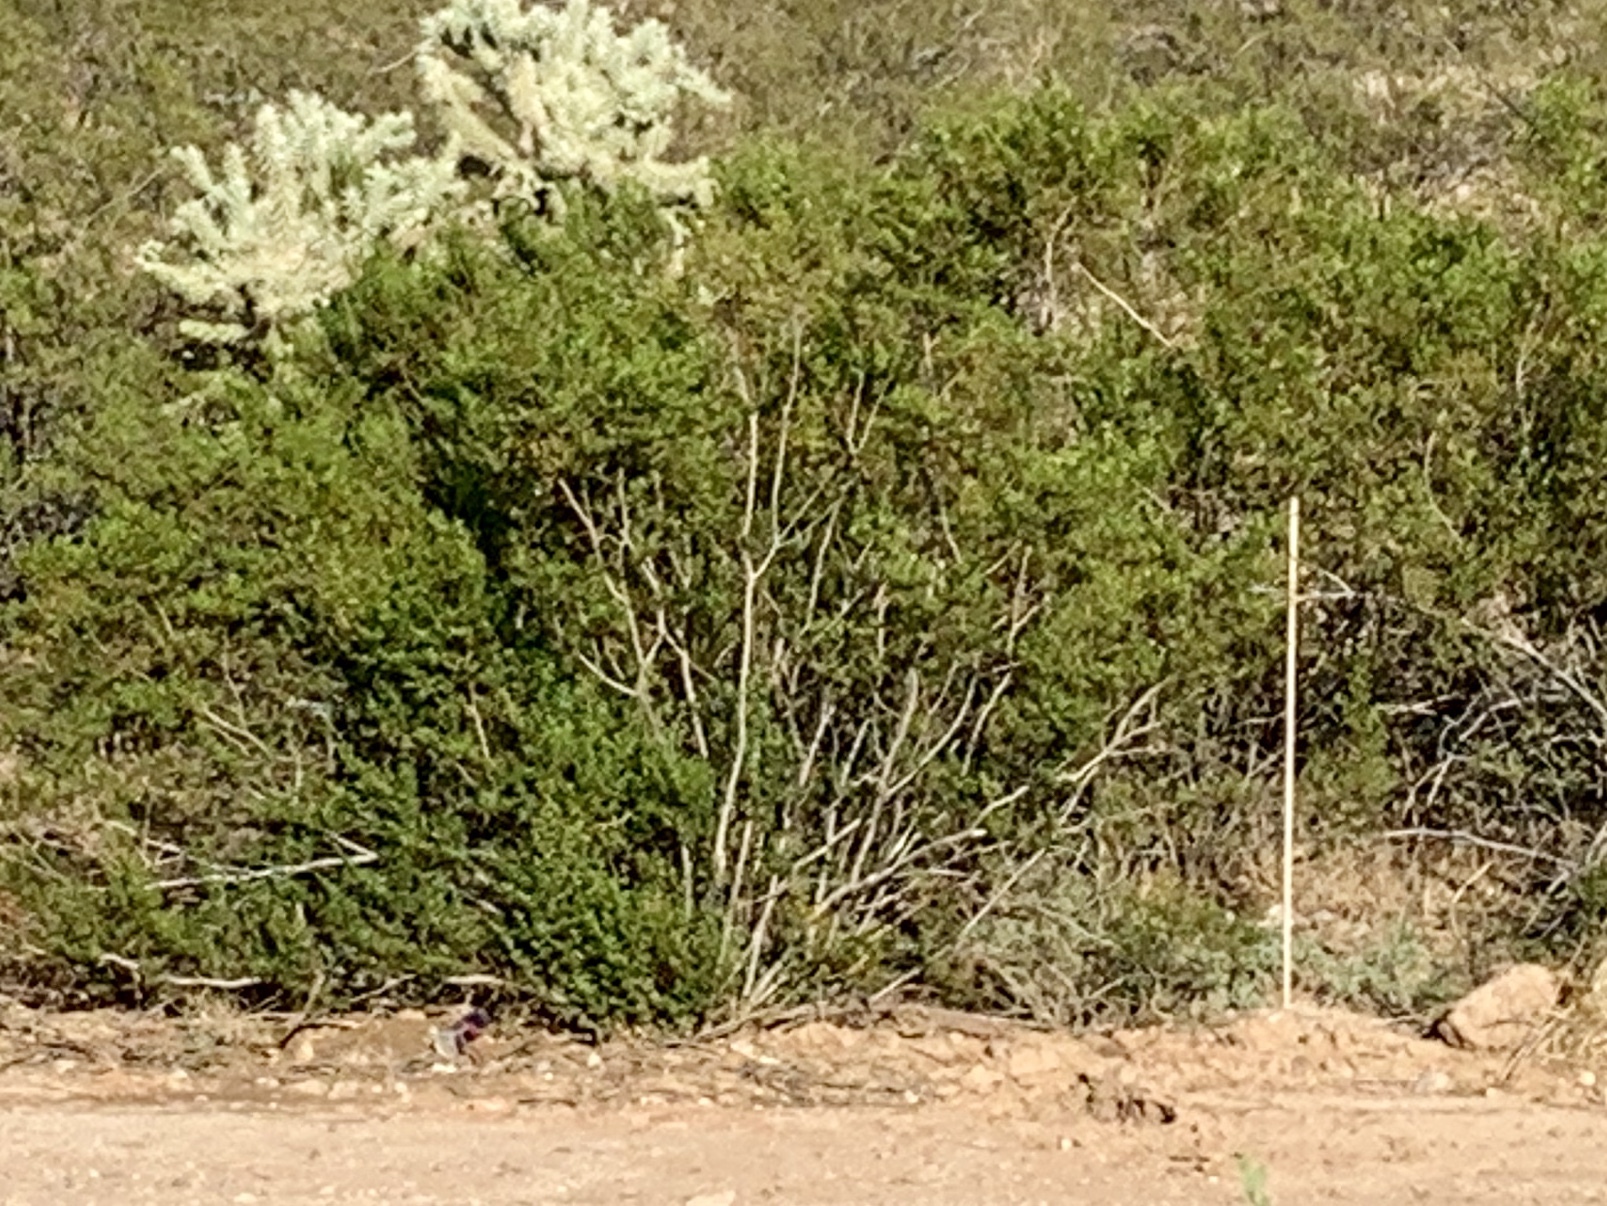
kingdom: Plantae
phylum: Tracheophyta
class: Magnoliopsida
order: Zygophyllales
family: Zygophyllaceae
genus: Larrea
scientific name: Larrea tridentata
